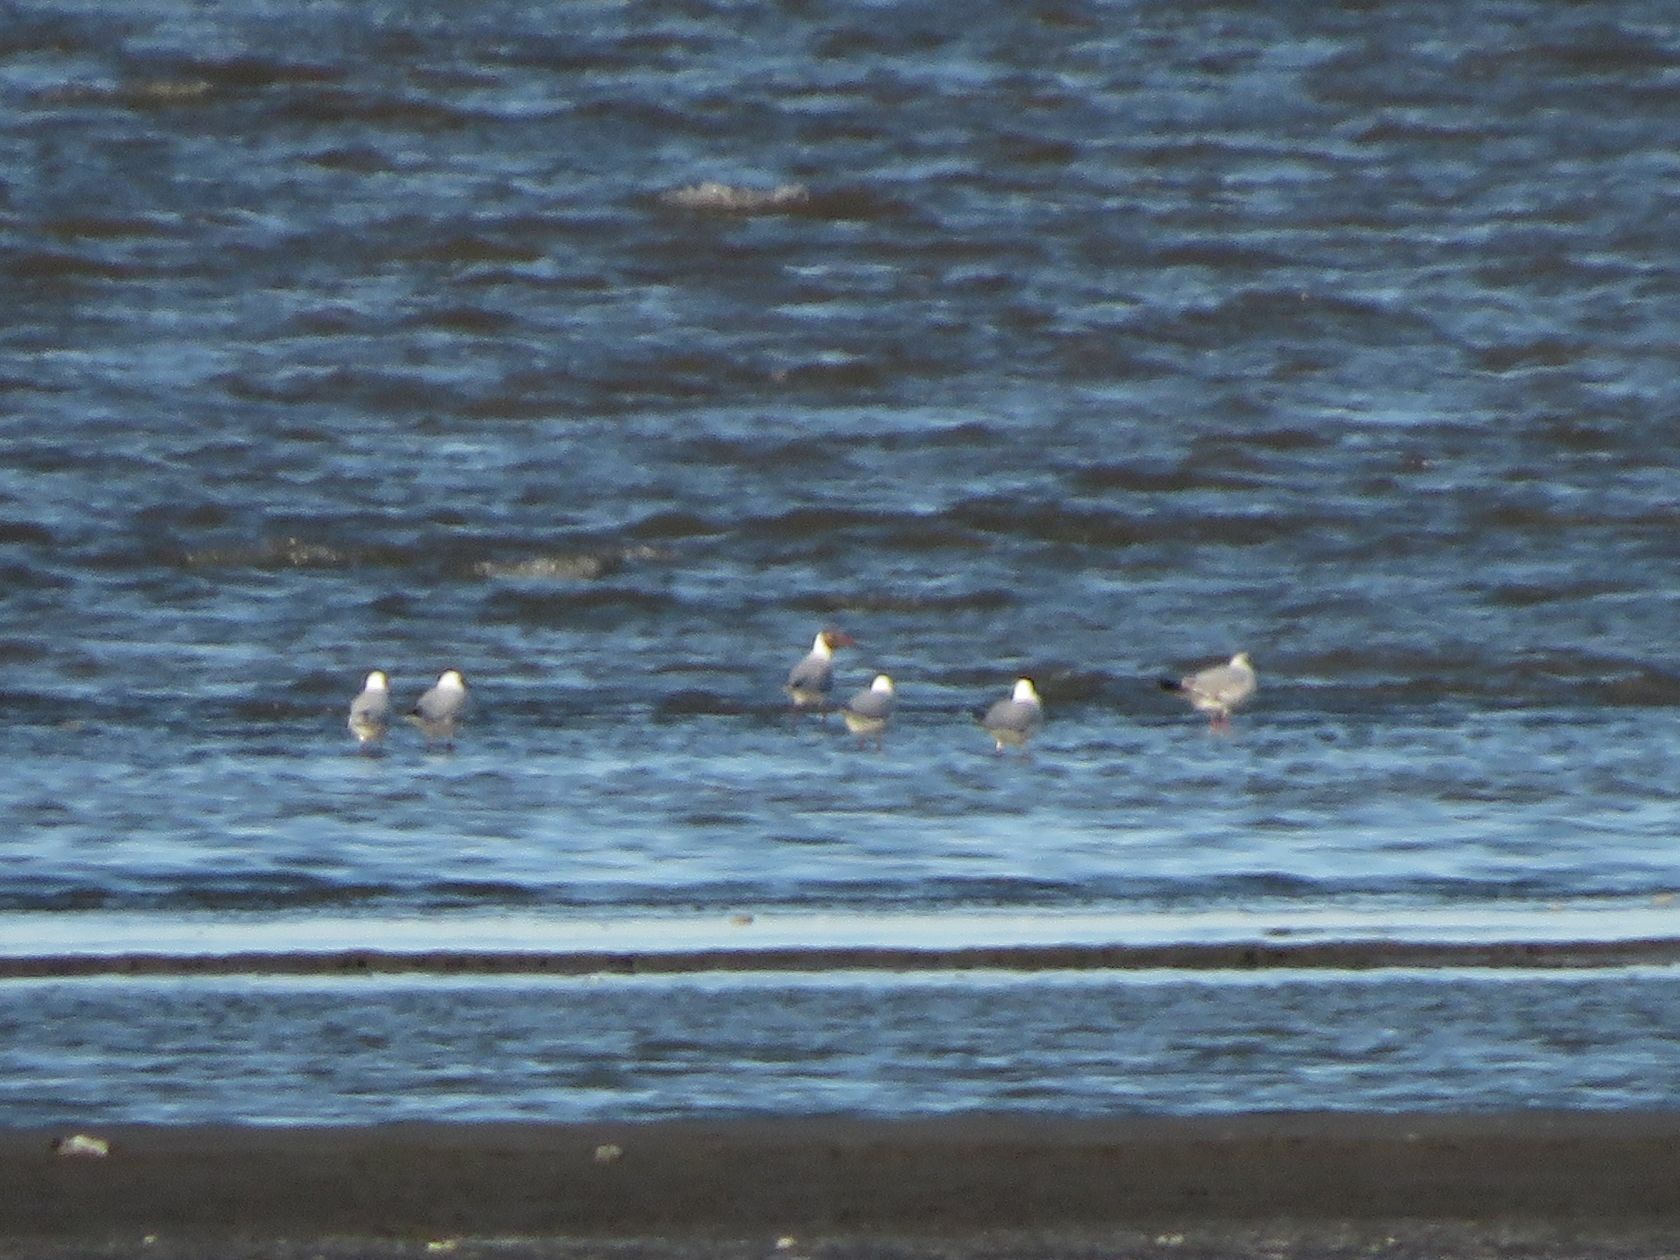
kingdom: Animalia
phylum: Chordata
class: Aves
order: Charadriiformes
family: Laridae
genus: Chroicocephalus
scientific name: Chroicocephalus maculipennis
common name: Brown-hooded gull
